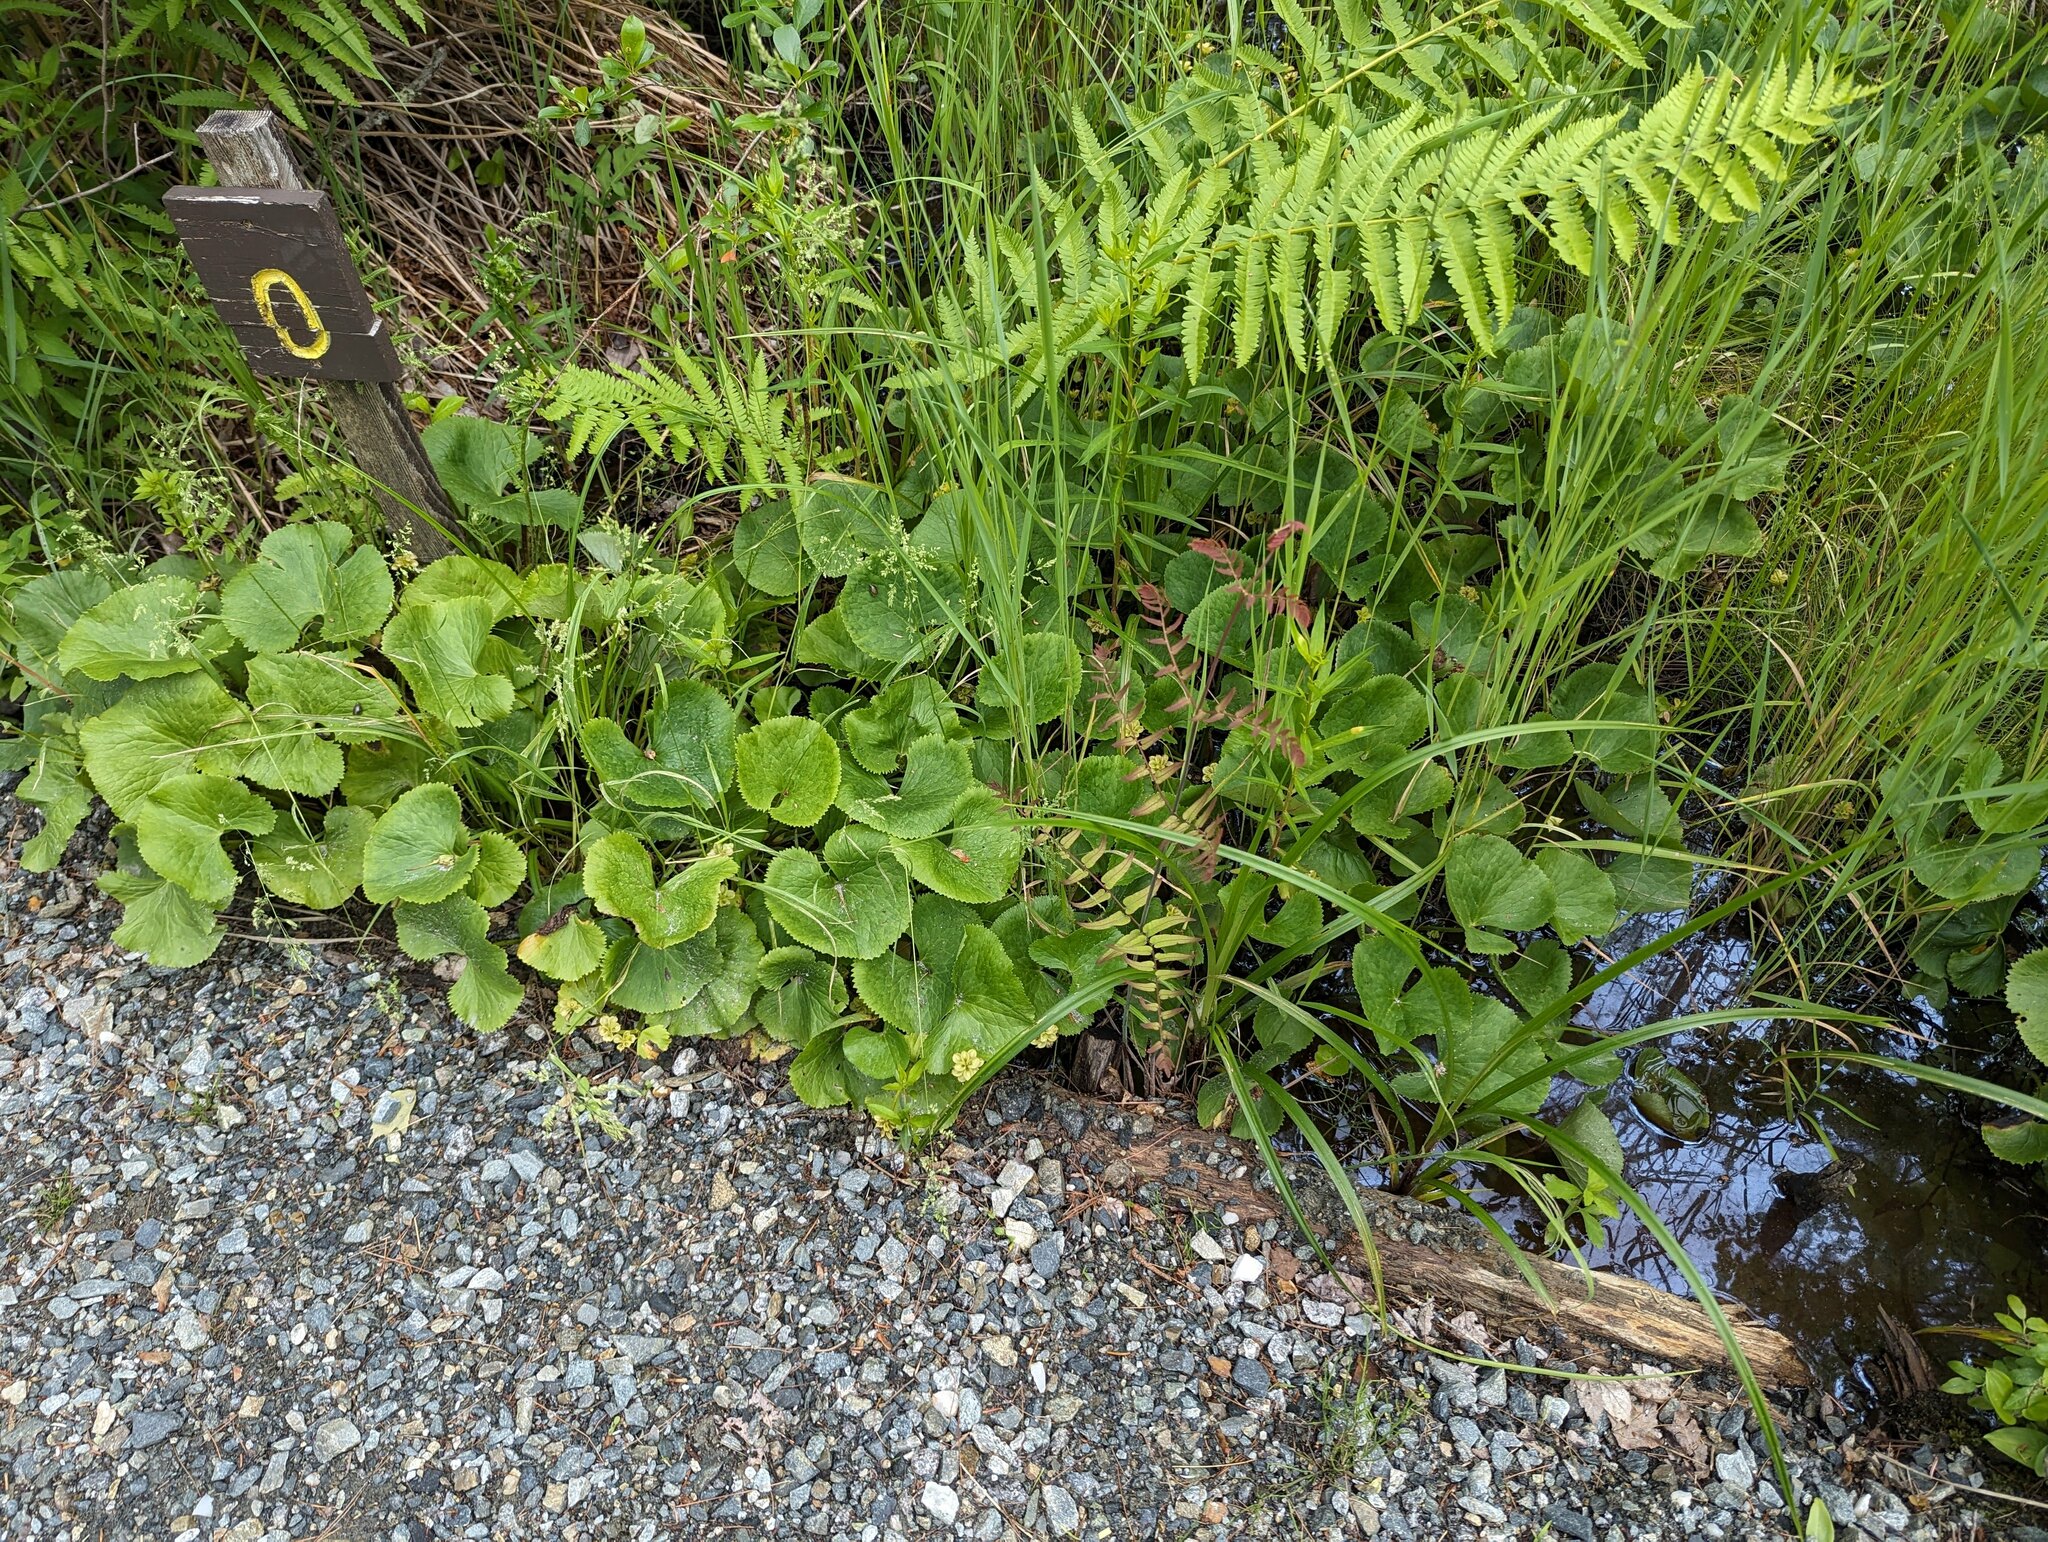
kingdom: Plantae
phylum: Tracheophyta
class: Magnoliopsida
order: Ranunculales
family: Ranunculaceae
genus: Caltha
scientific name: Caltha palustris
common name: Marsh marigold
